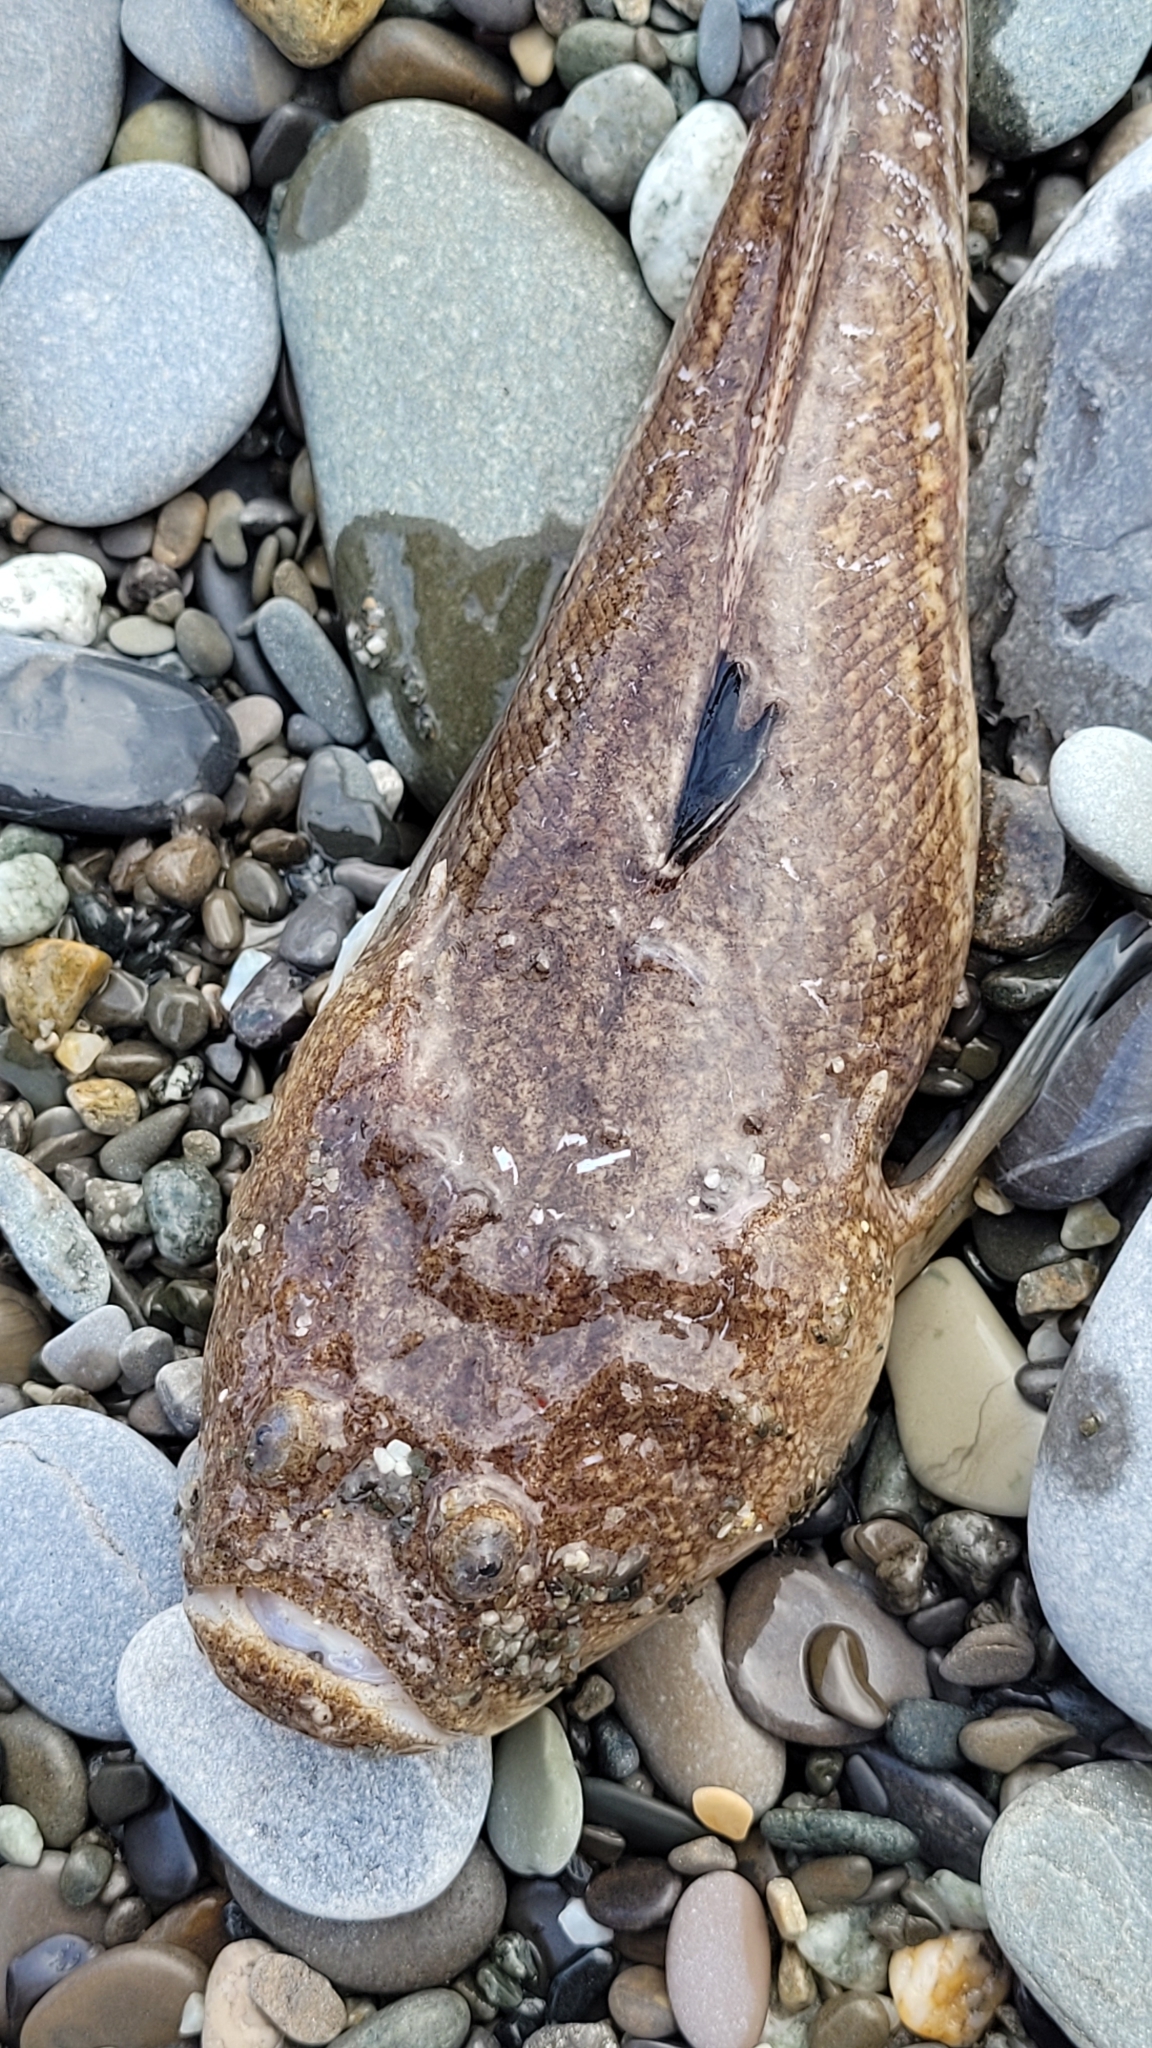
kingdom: Animalia
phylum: Chordata
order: Perciformes
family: Uranoscopidae
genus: Uranoscopus
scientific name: Uranoscopus scaber
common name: Stargazer
